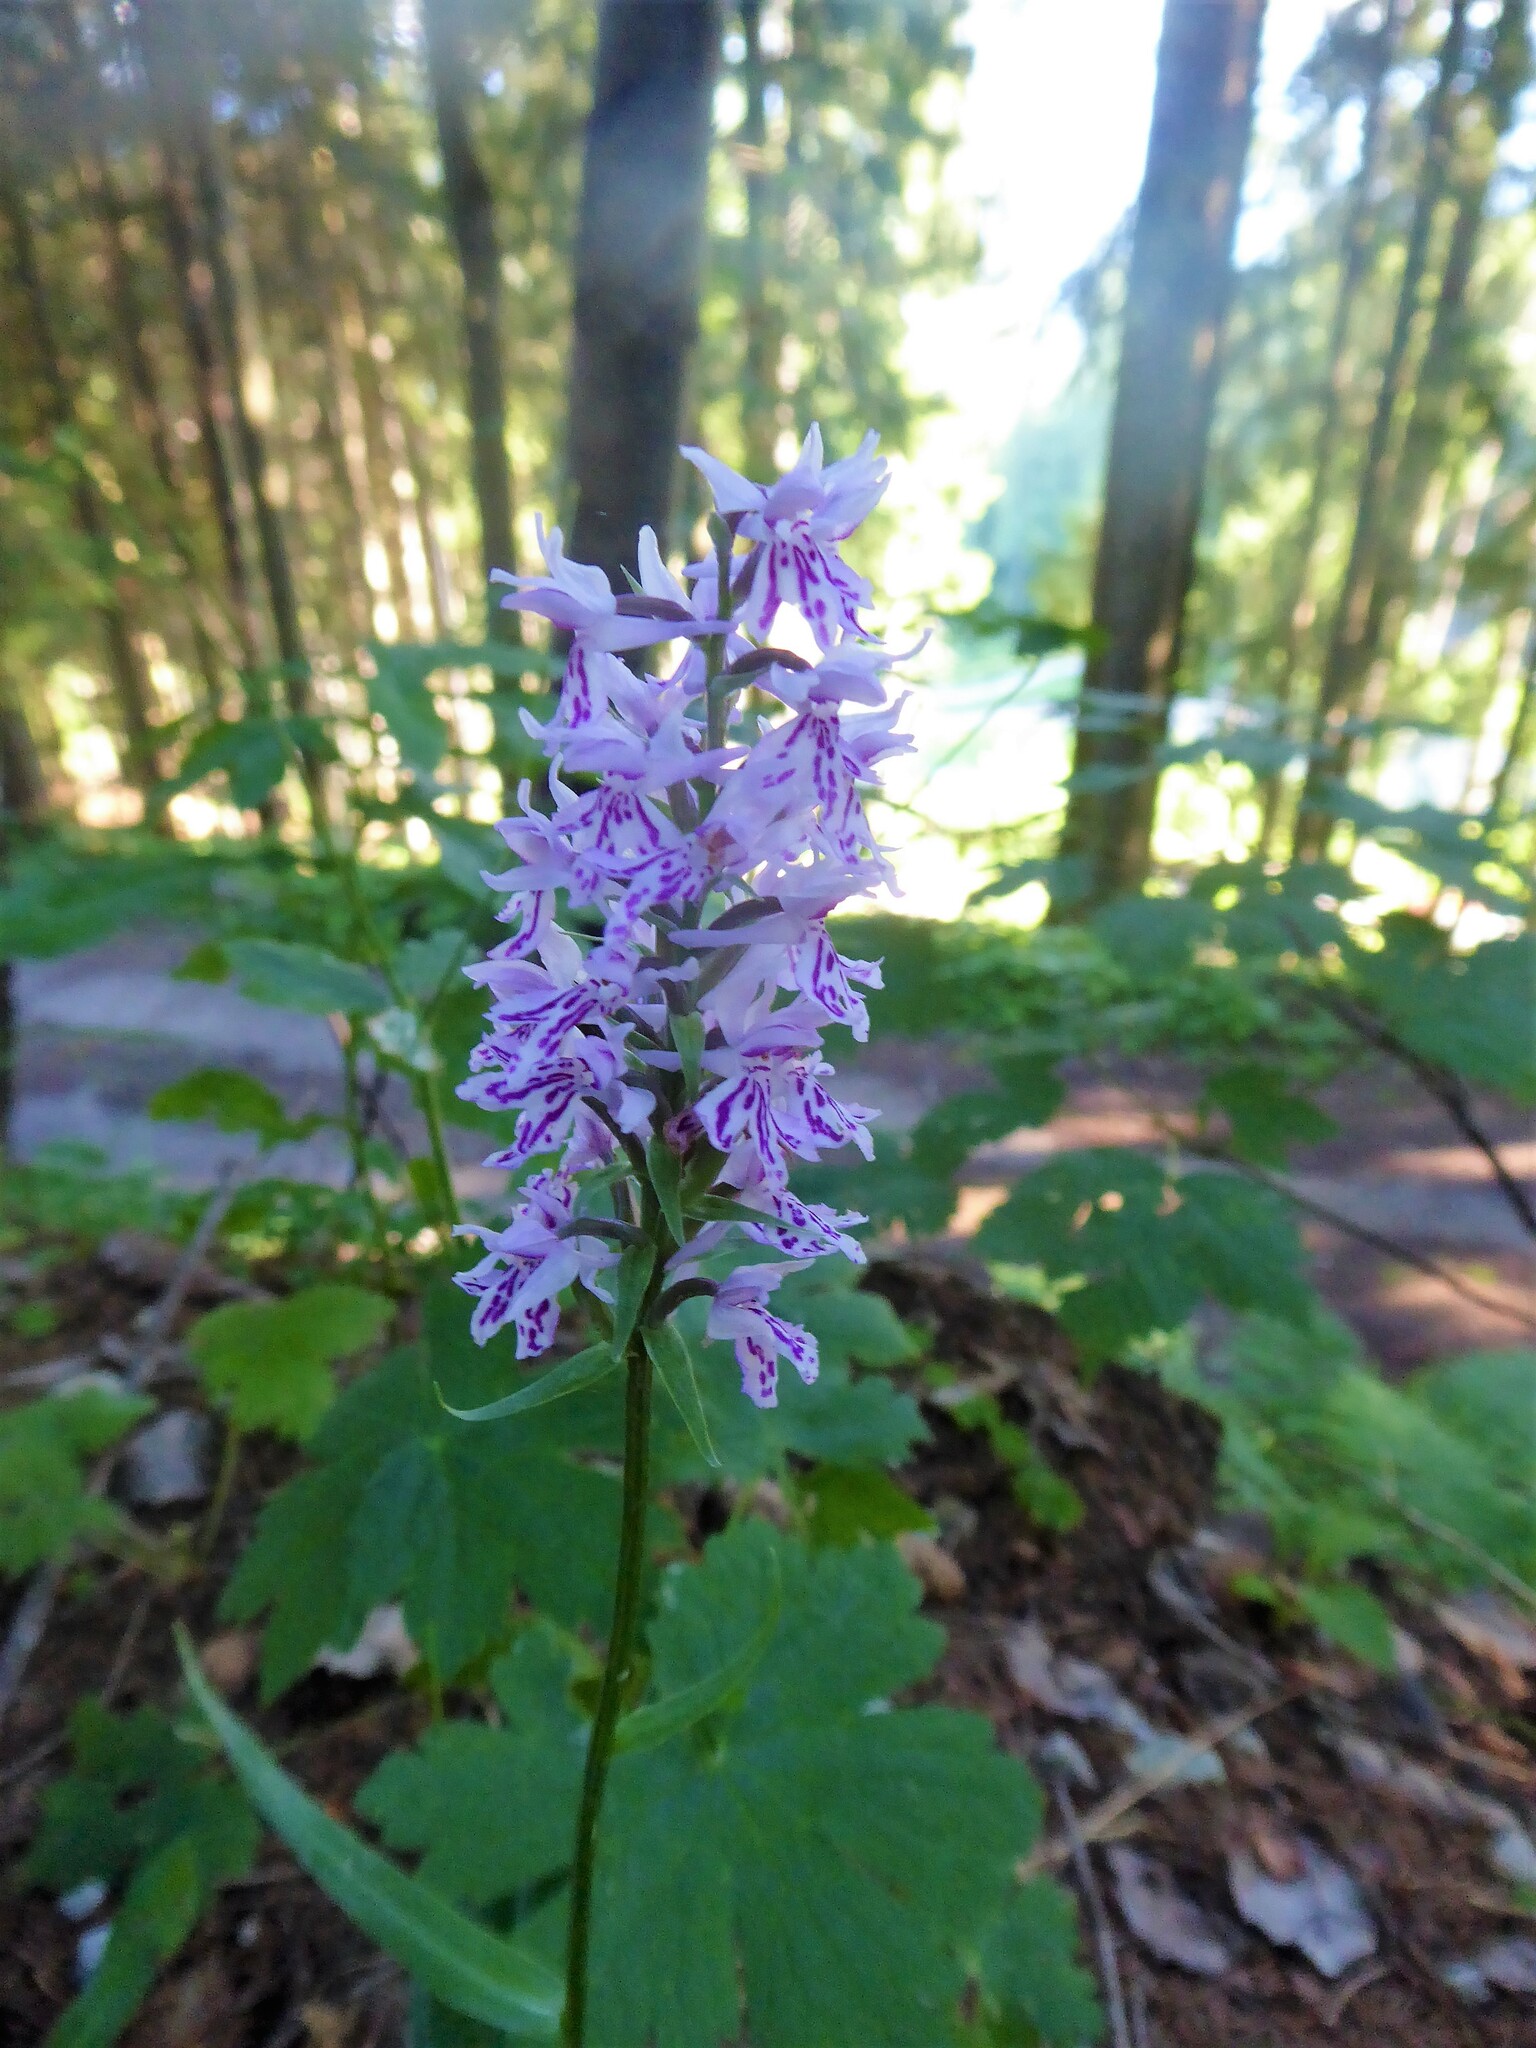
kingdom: Plantae
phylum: Tracheophyta
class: Liliopsida
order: Asparagales
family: Orchidaceae
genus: Dactylorhiza
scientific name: Dactylorhiza maculata
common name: Heath spotted-orchid
